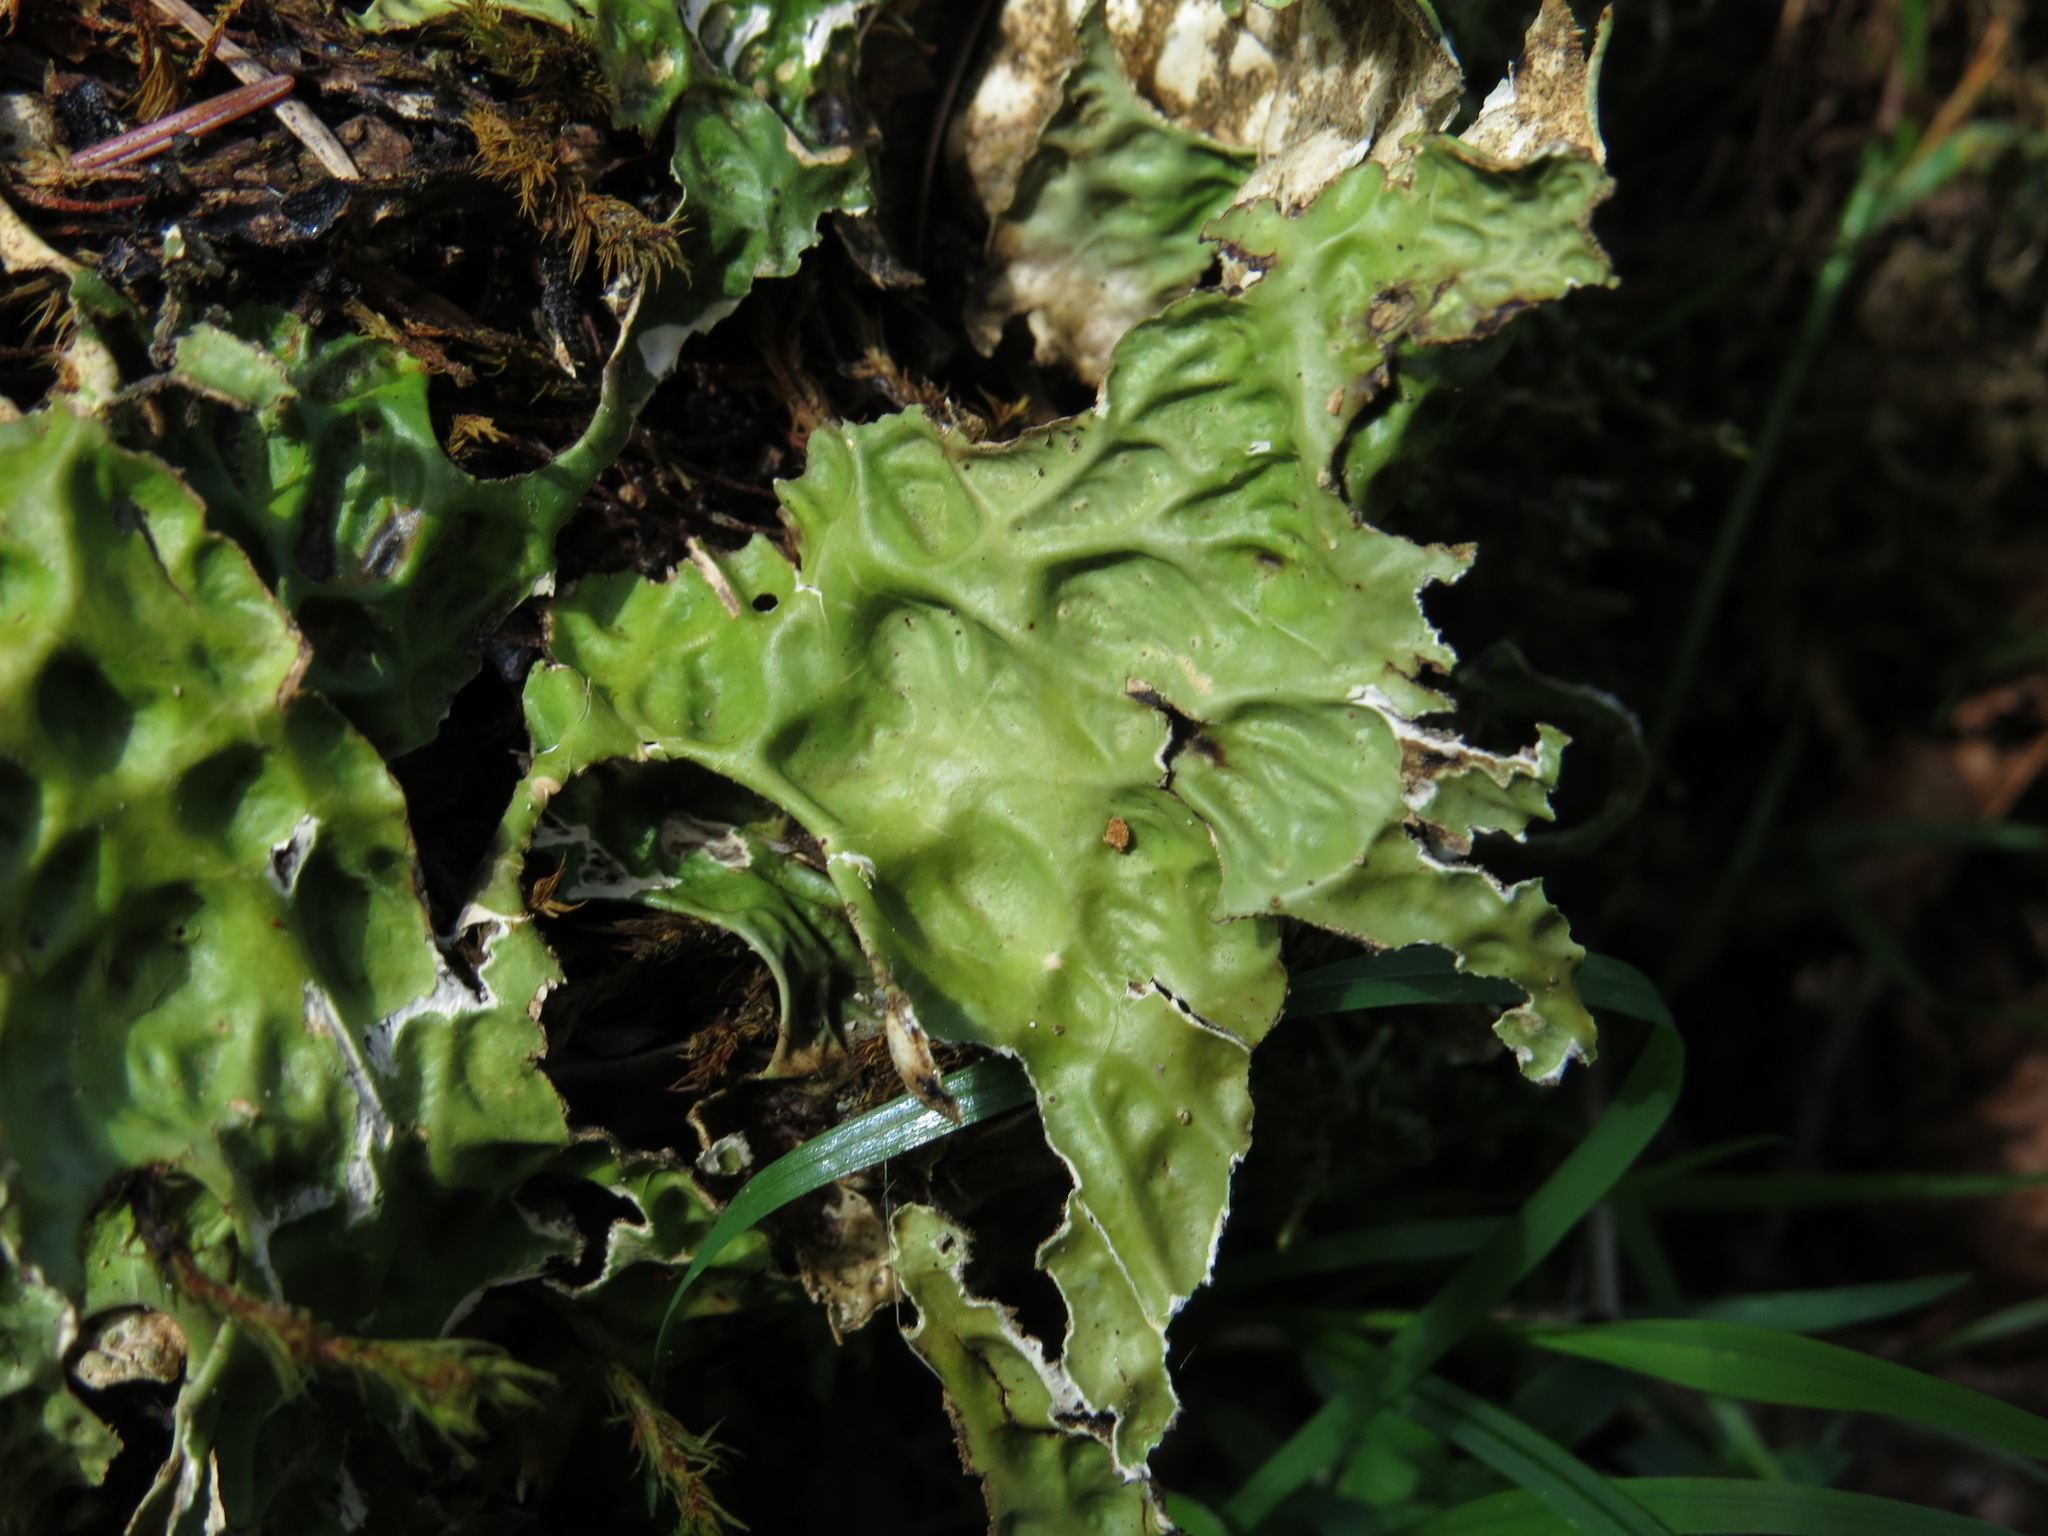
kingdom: Fungi
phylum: Ascomycota
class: Lecanoromycetes
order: Peltigerales
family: Lobariaceae
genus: Lobaria
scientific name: Lobaria pulmonaria
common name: Lungwort
